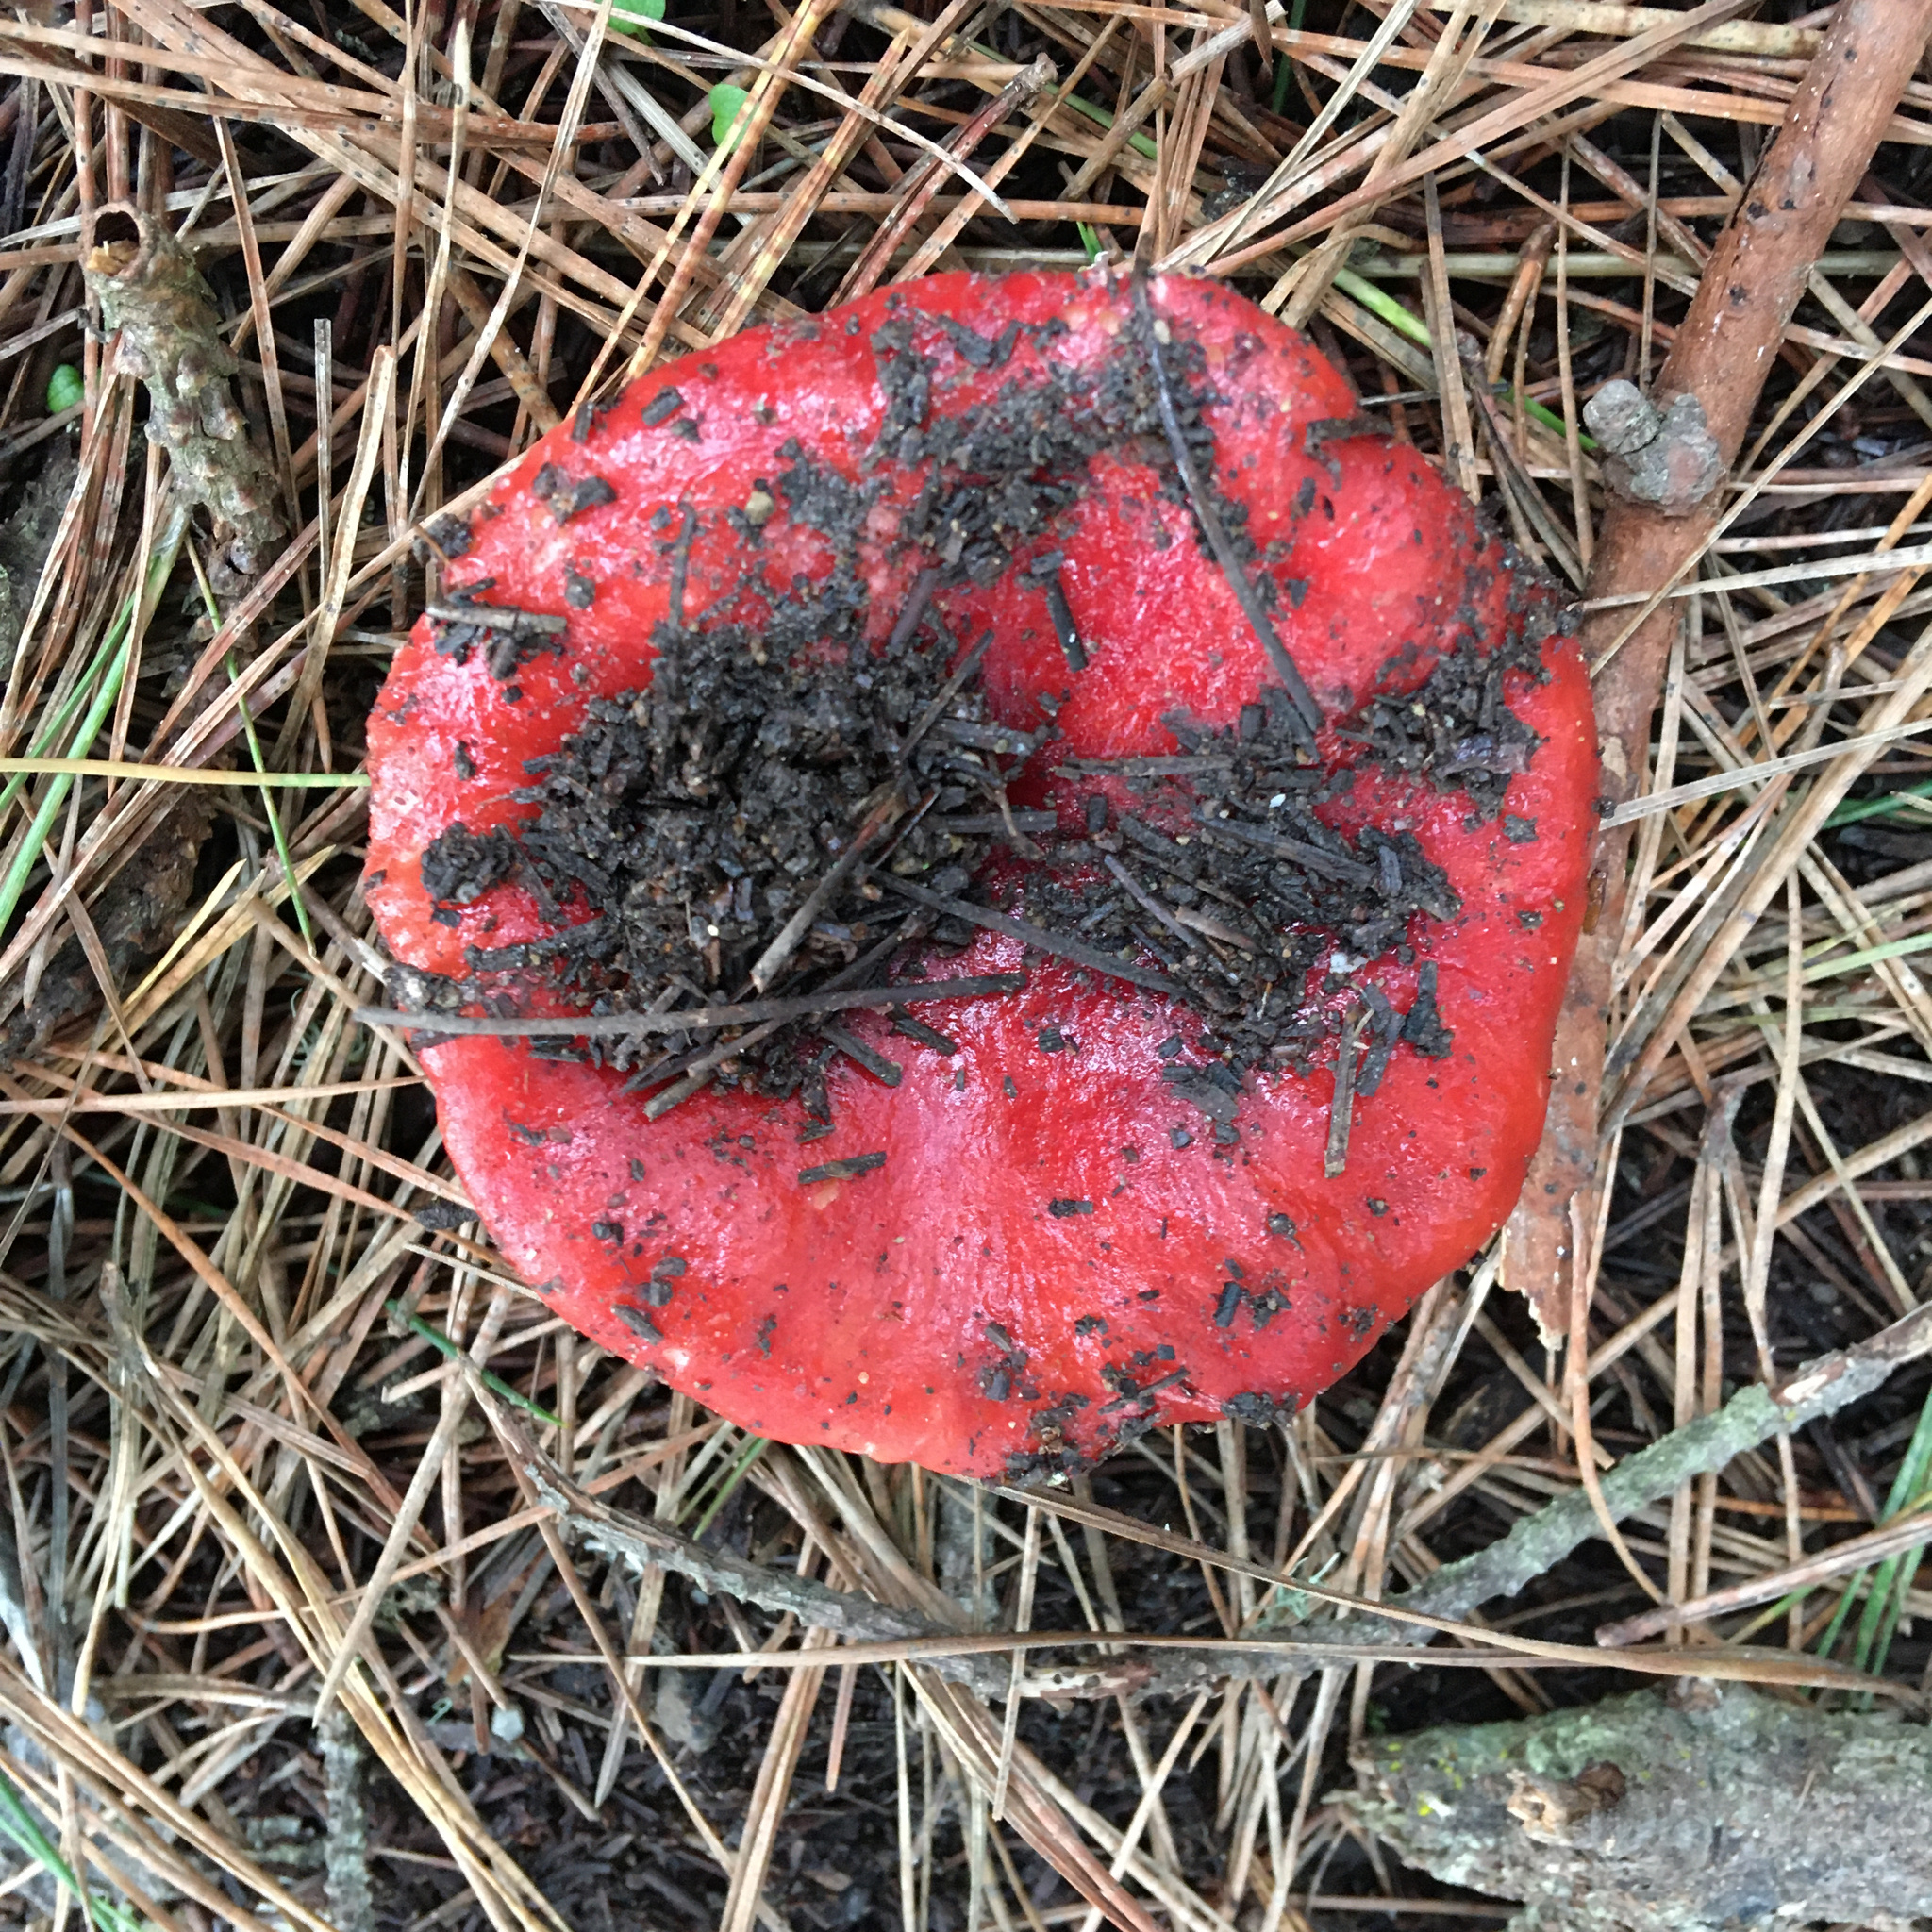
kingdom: Fungi
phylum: Basidiomycota
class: Agaricomycetes
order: Russulales
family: Russulaceae
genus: Russula
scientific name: Russula sanguinea
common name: Bloody brittlegill
